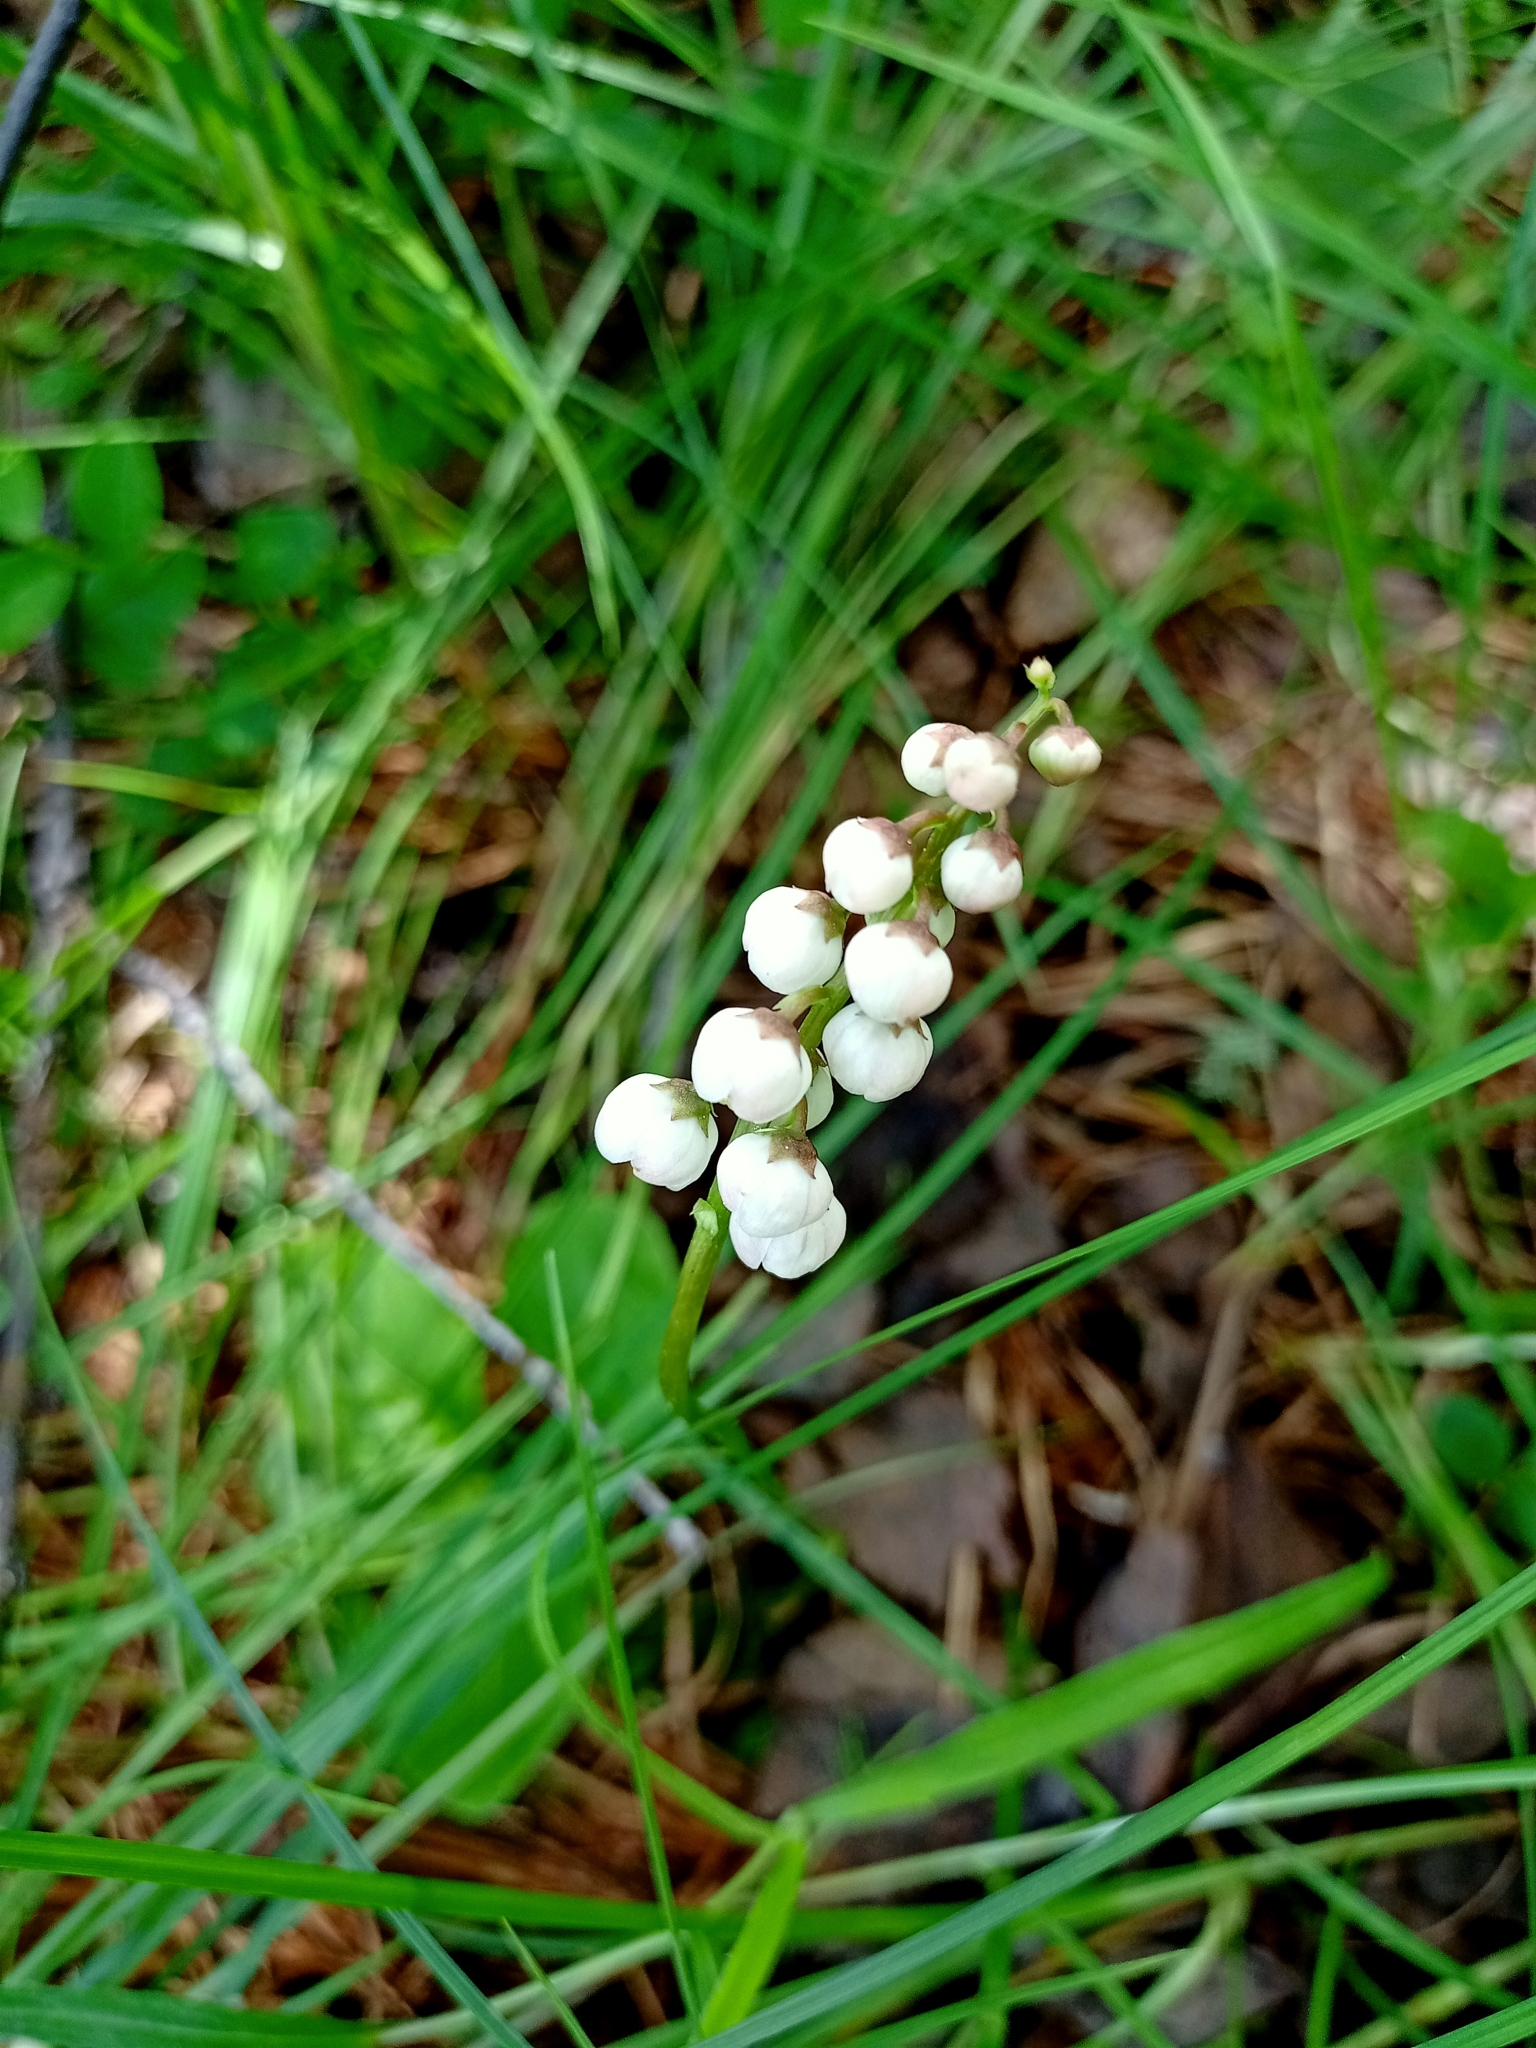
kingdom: Plantae
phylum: Tracheophyta
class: Magnoliopsida
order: Ericales
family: Ericaceae
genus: Pyrola
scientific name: Pyrola rotundifolia
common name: Round-leaved wintergreen
